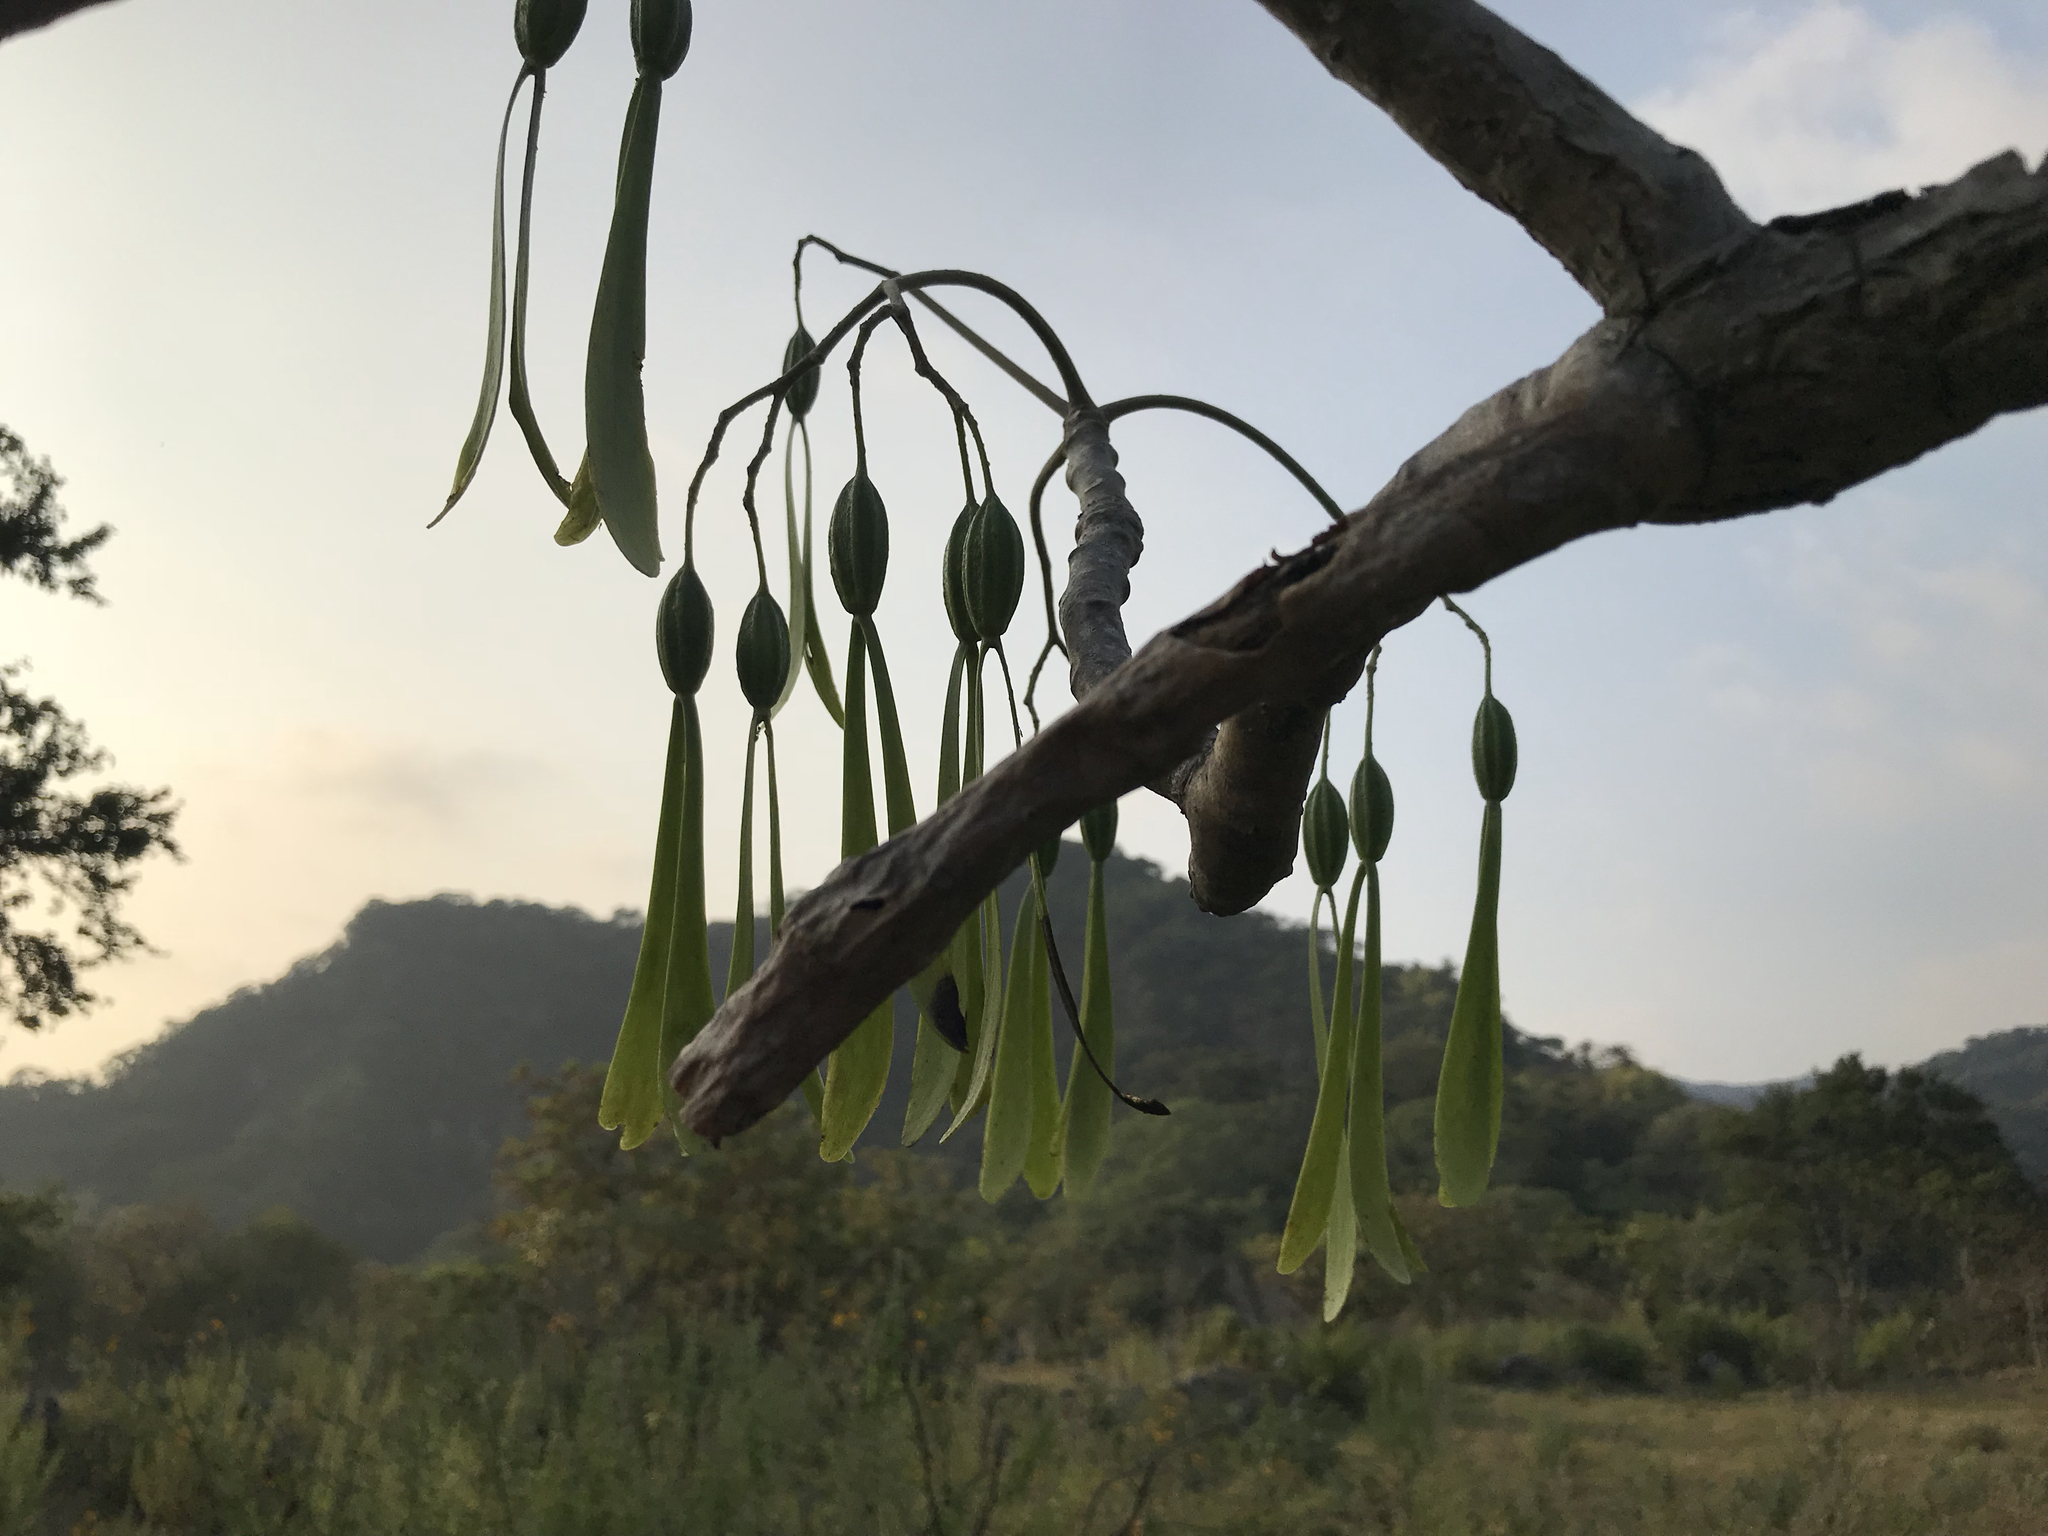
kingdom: Plantae
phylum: Tracheophyta
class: Magnoliopsida
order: Laurales
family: Hernandiaceae
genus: Gyrocarpus
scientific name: Gyrocarpus jatrophifolius
